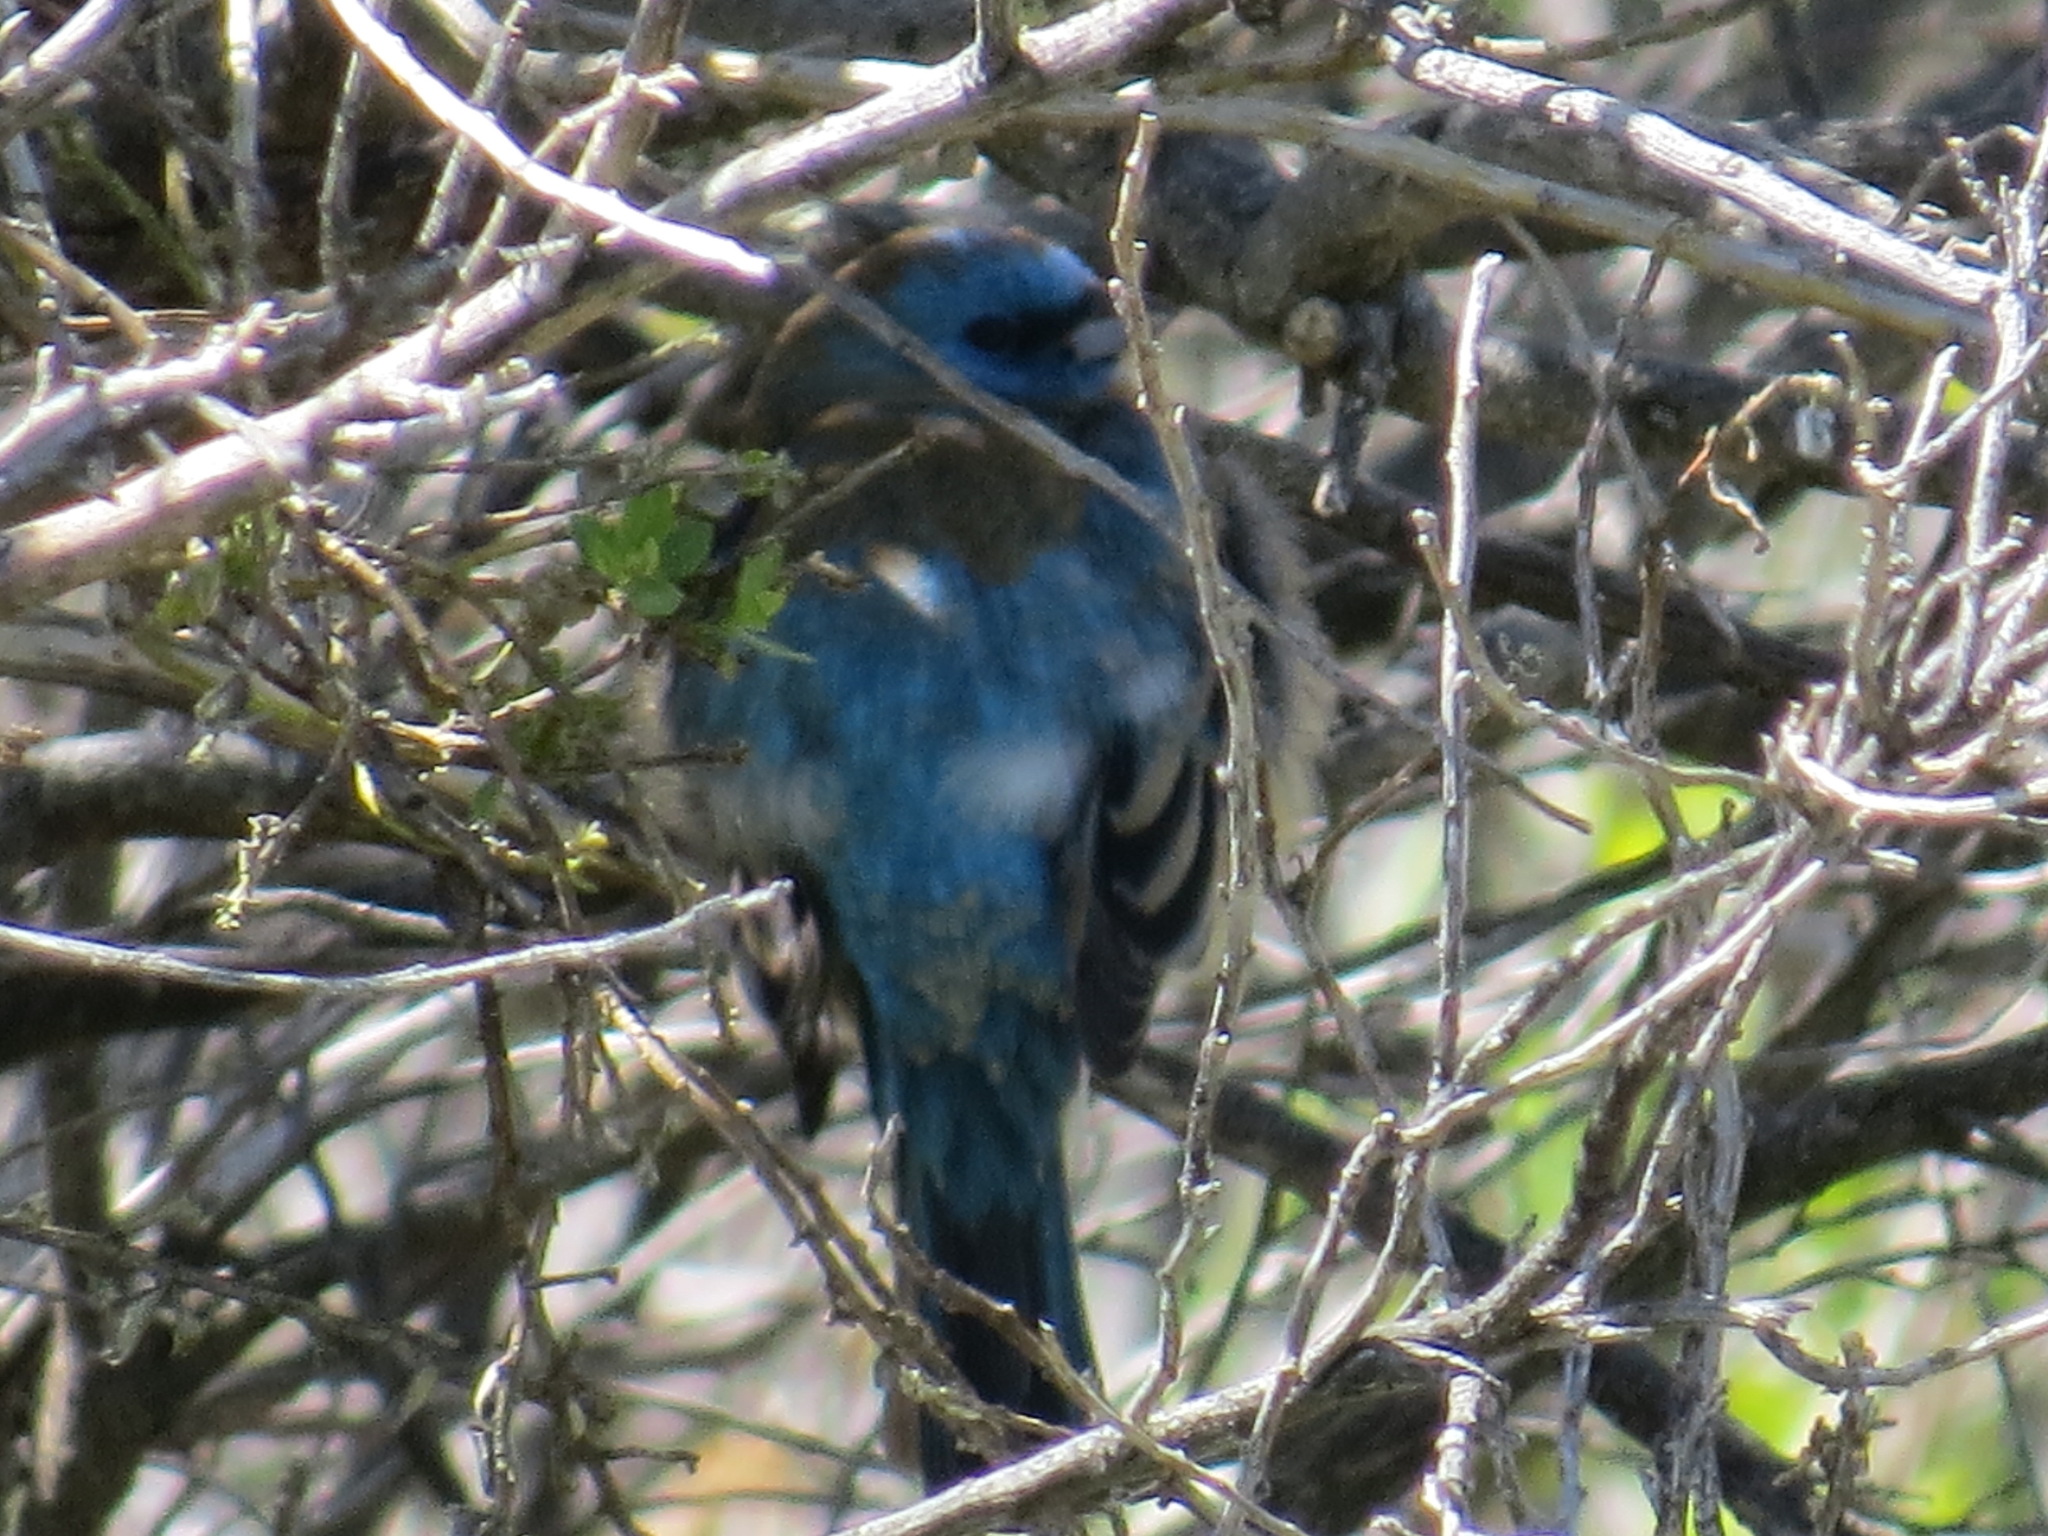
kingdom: Animalia
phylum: Chordata
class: Aves
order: Passeriformes
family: Cardinalidae
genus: Passerina
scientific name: Passerina amoena
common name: Lazuli bunting
